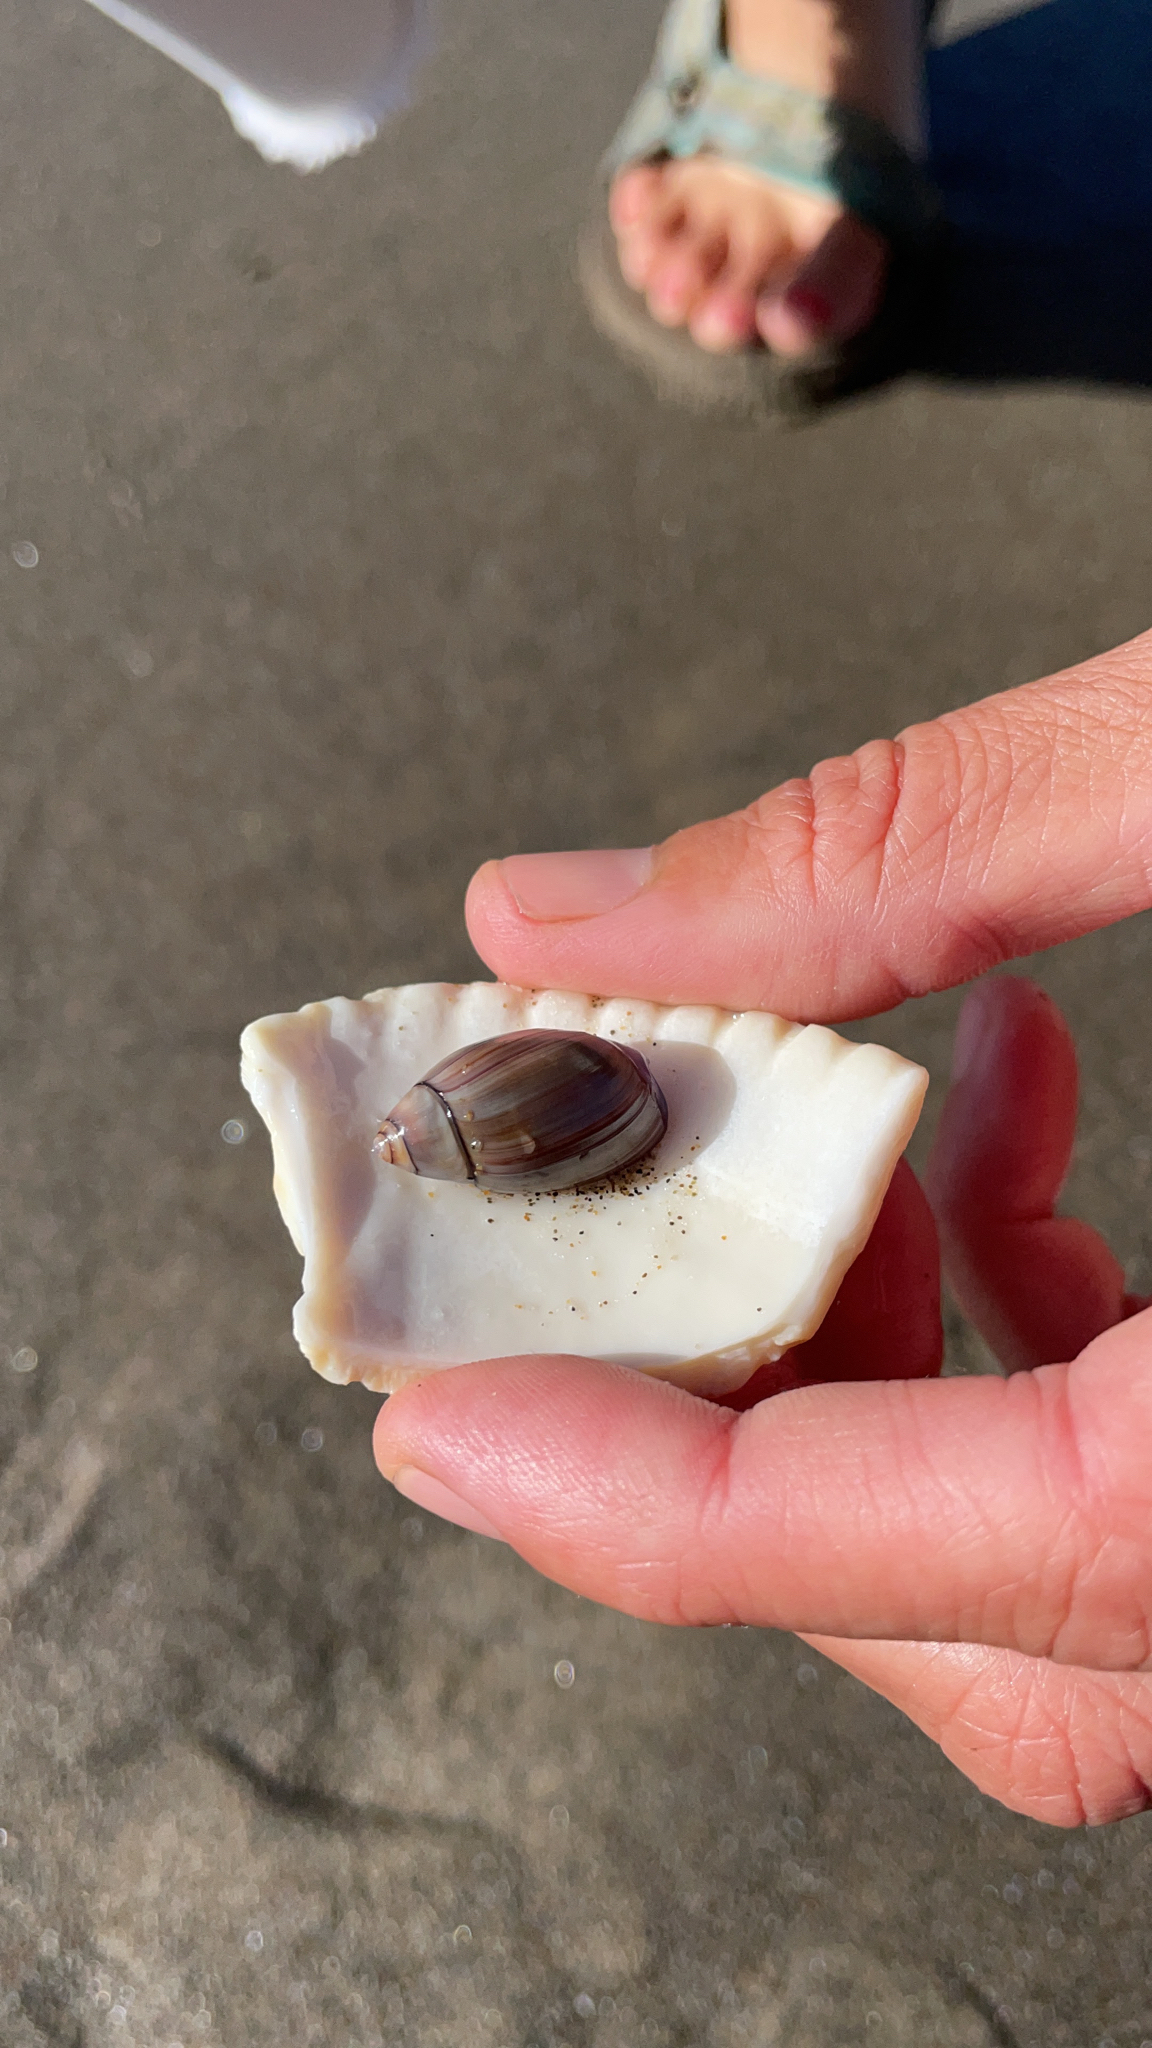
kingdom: Animalia
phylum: Mollusca
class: Gastropoda
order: Neogastropoda
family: Olividae
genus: Callianax
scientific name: Callianax biplicata
